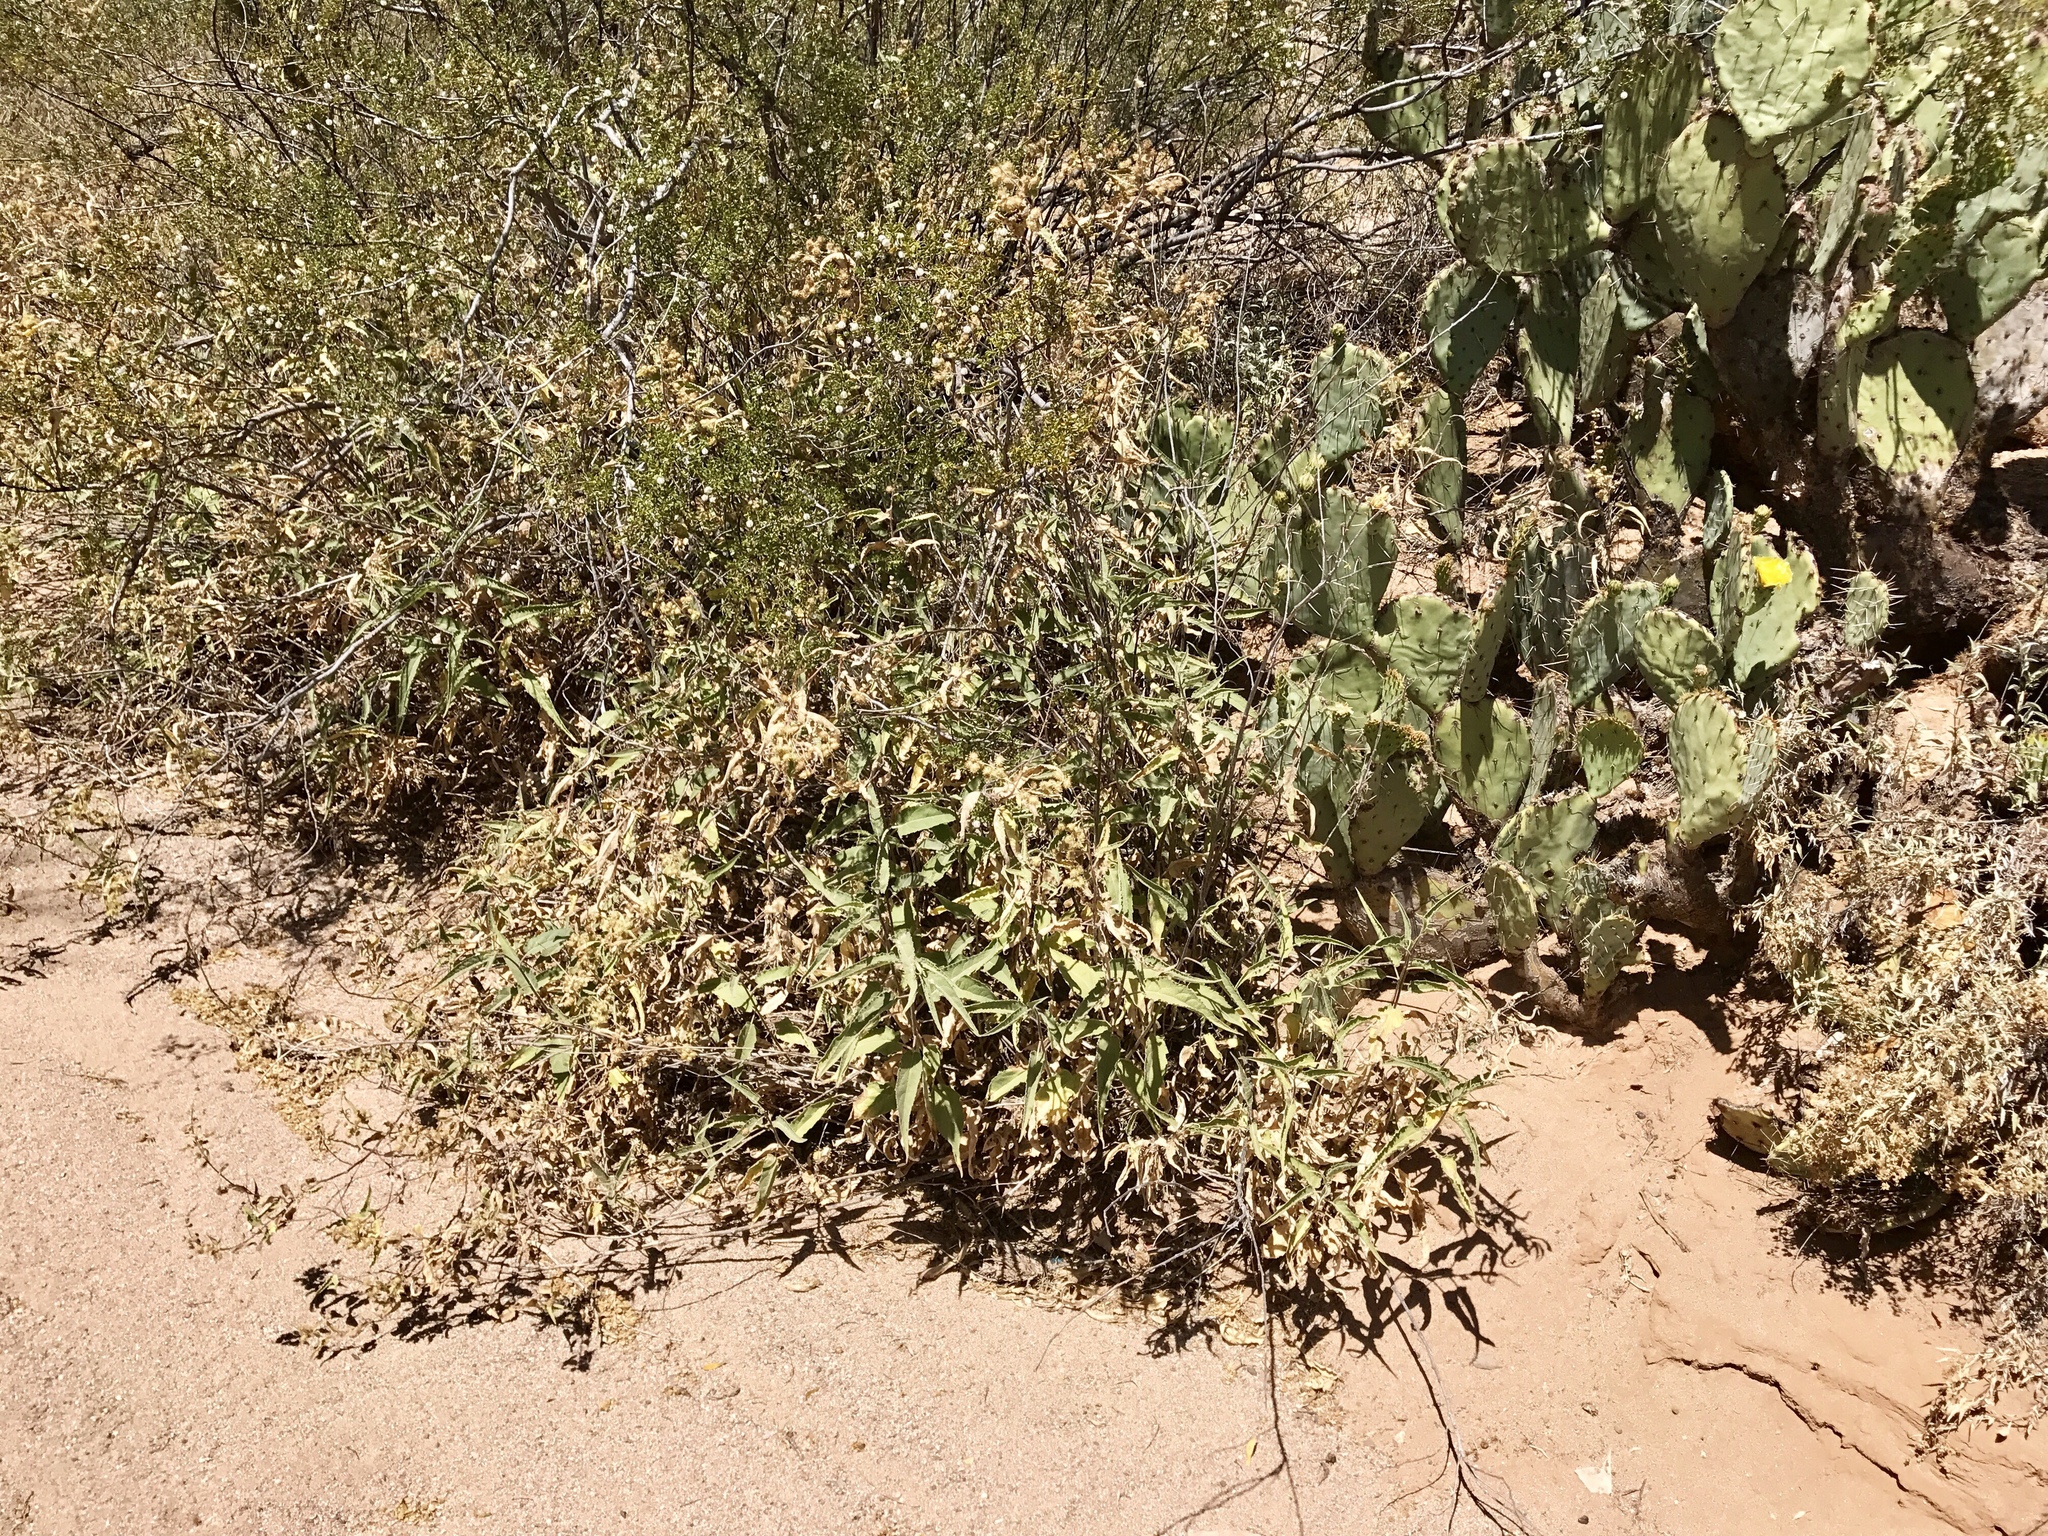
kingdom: Plantae
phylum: Tracheophyta
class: Magnoliopsida
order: Asterales
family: Asteraceae
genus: Ambrosia
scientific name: Ambrosia ambrosioides
